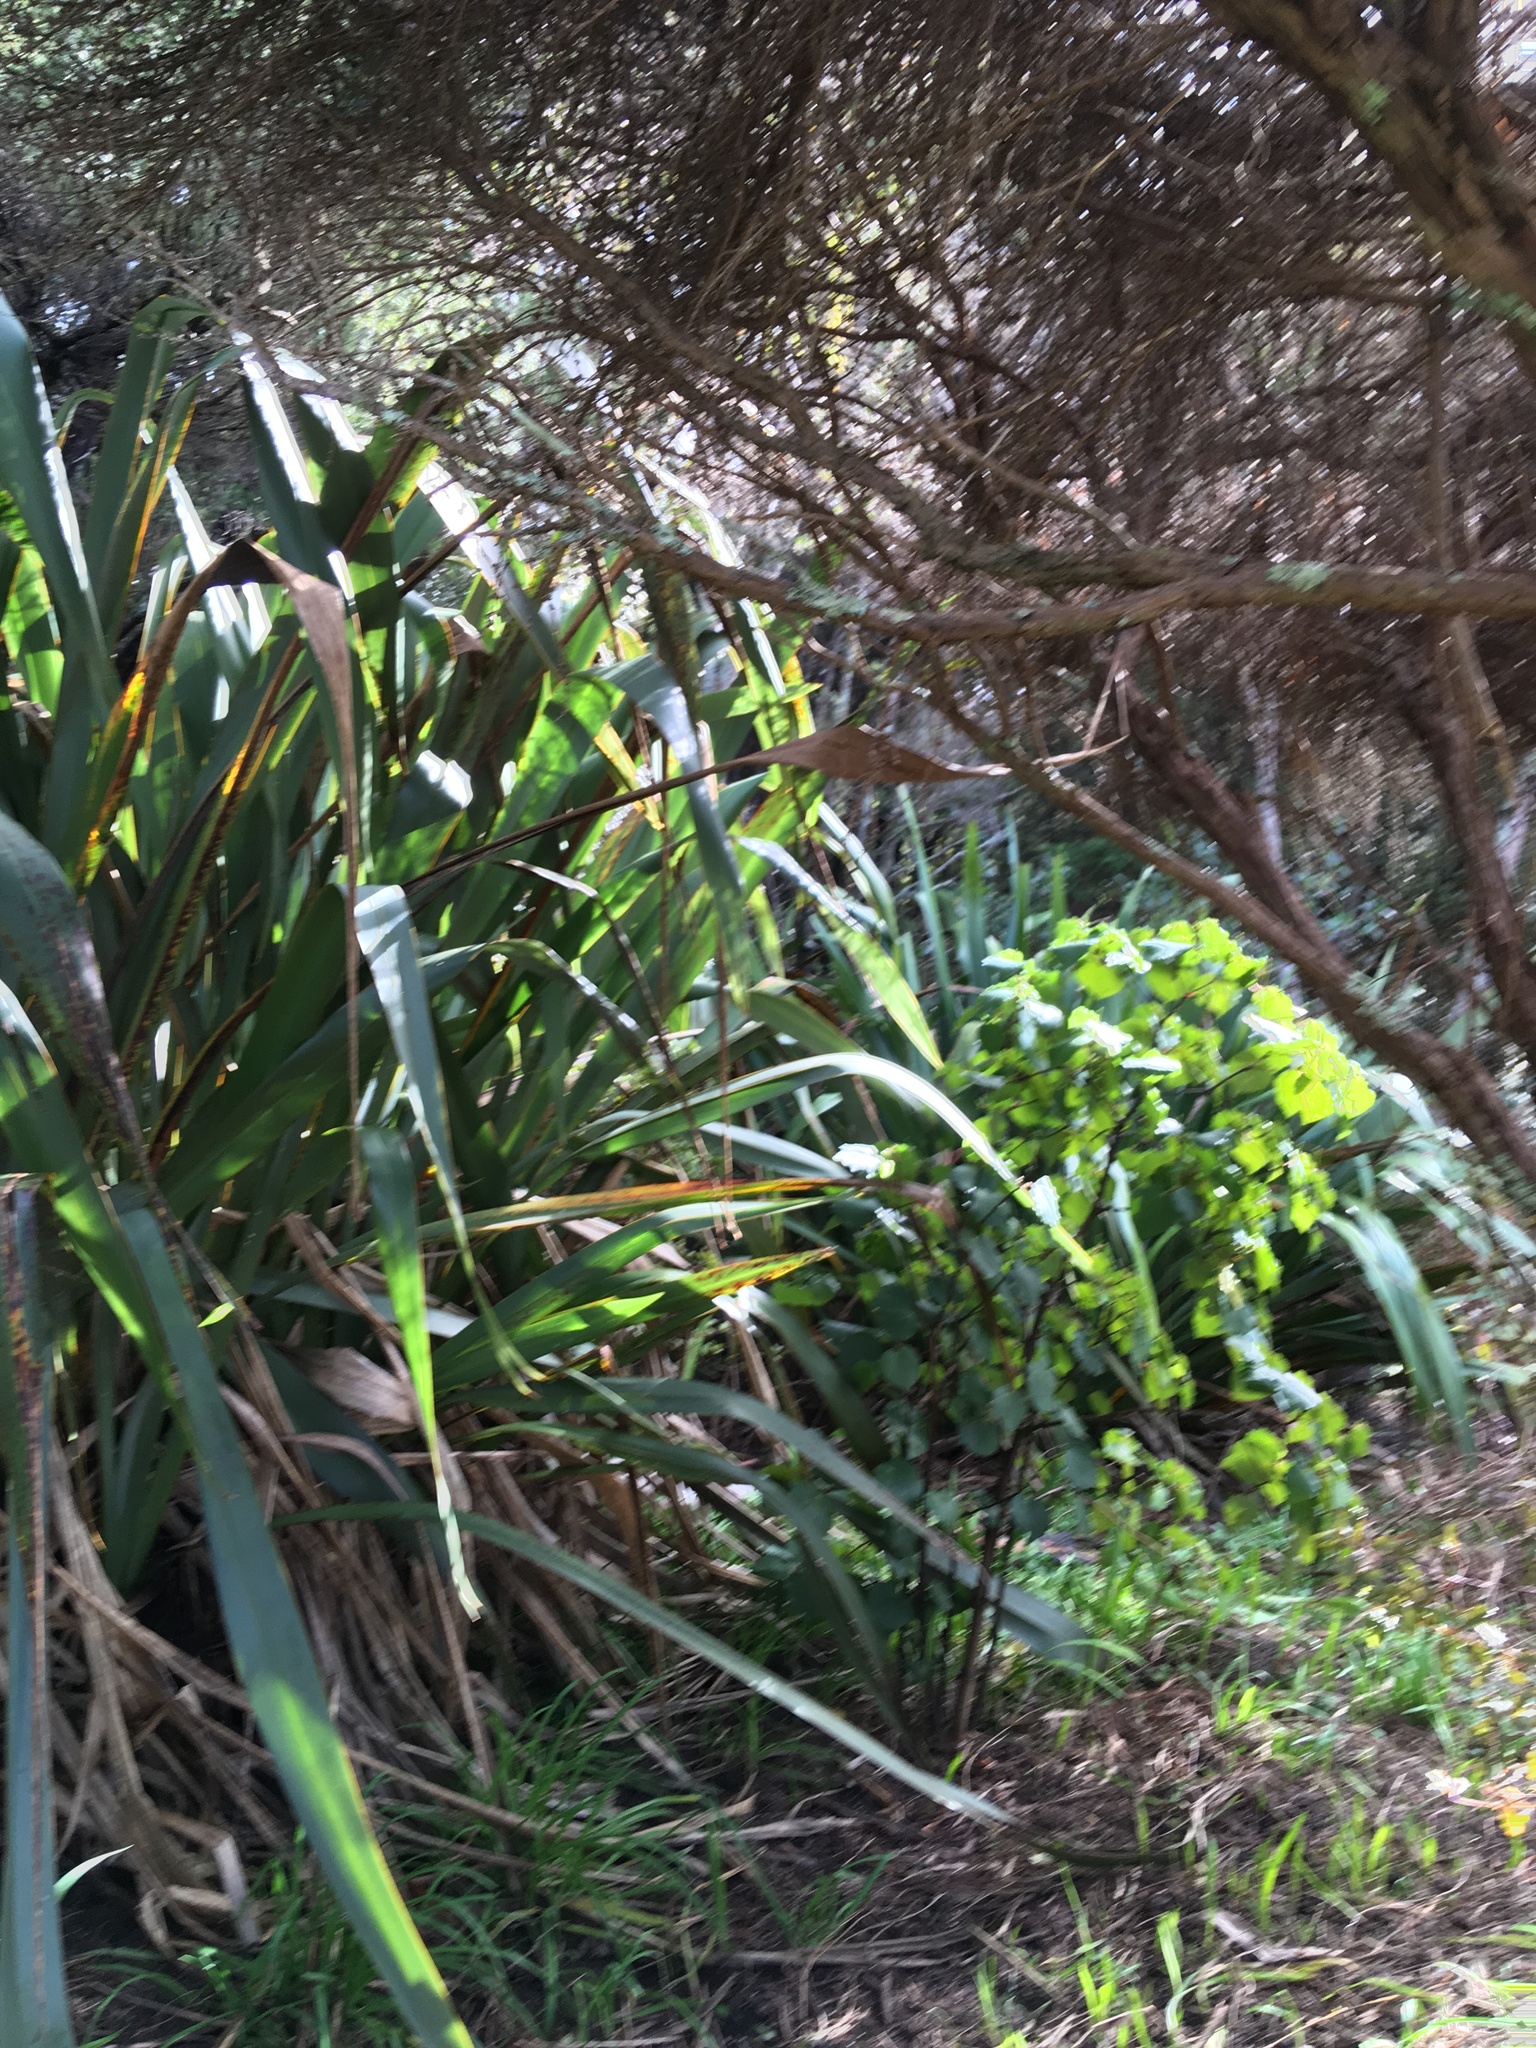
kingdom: Plantae
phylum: Tracheophyta
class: Magnoliopsida
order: Piperales
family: Piperaceae
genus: Macropiper
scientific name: Macropiper excelsum
